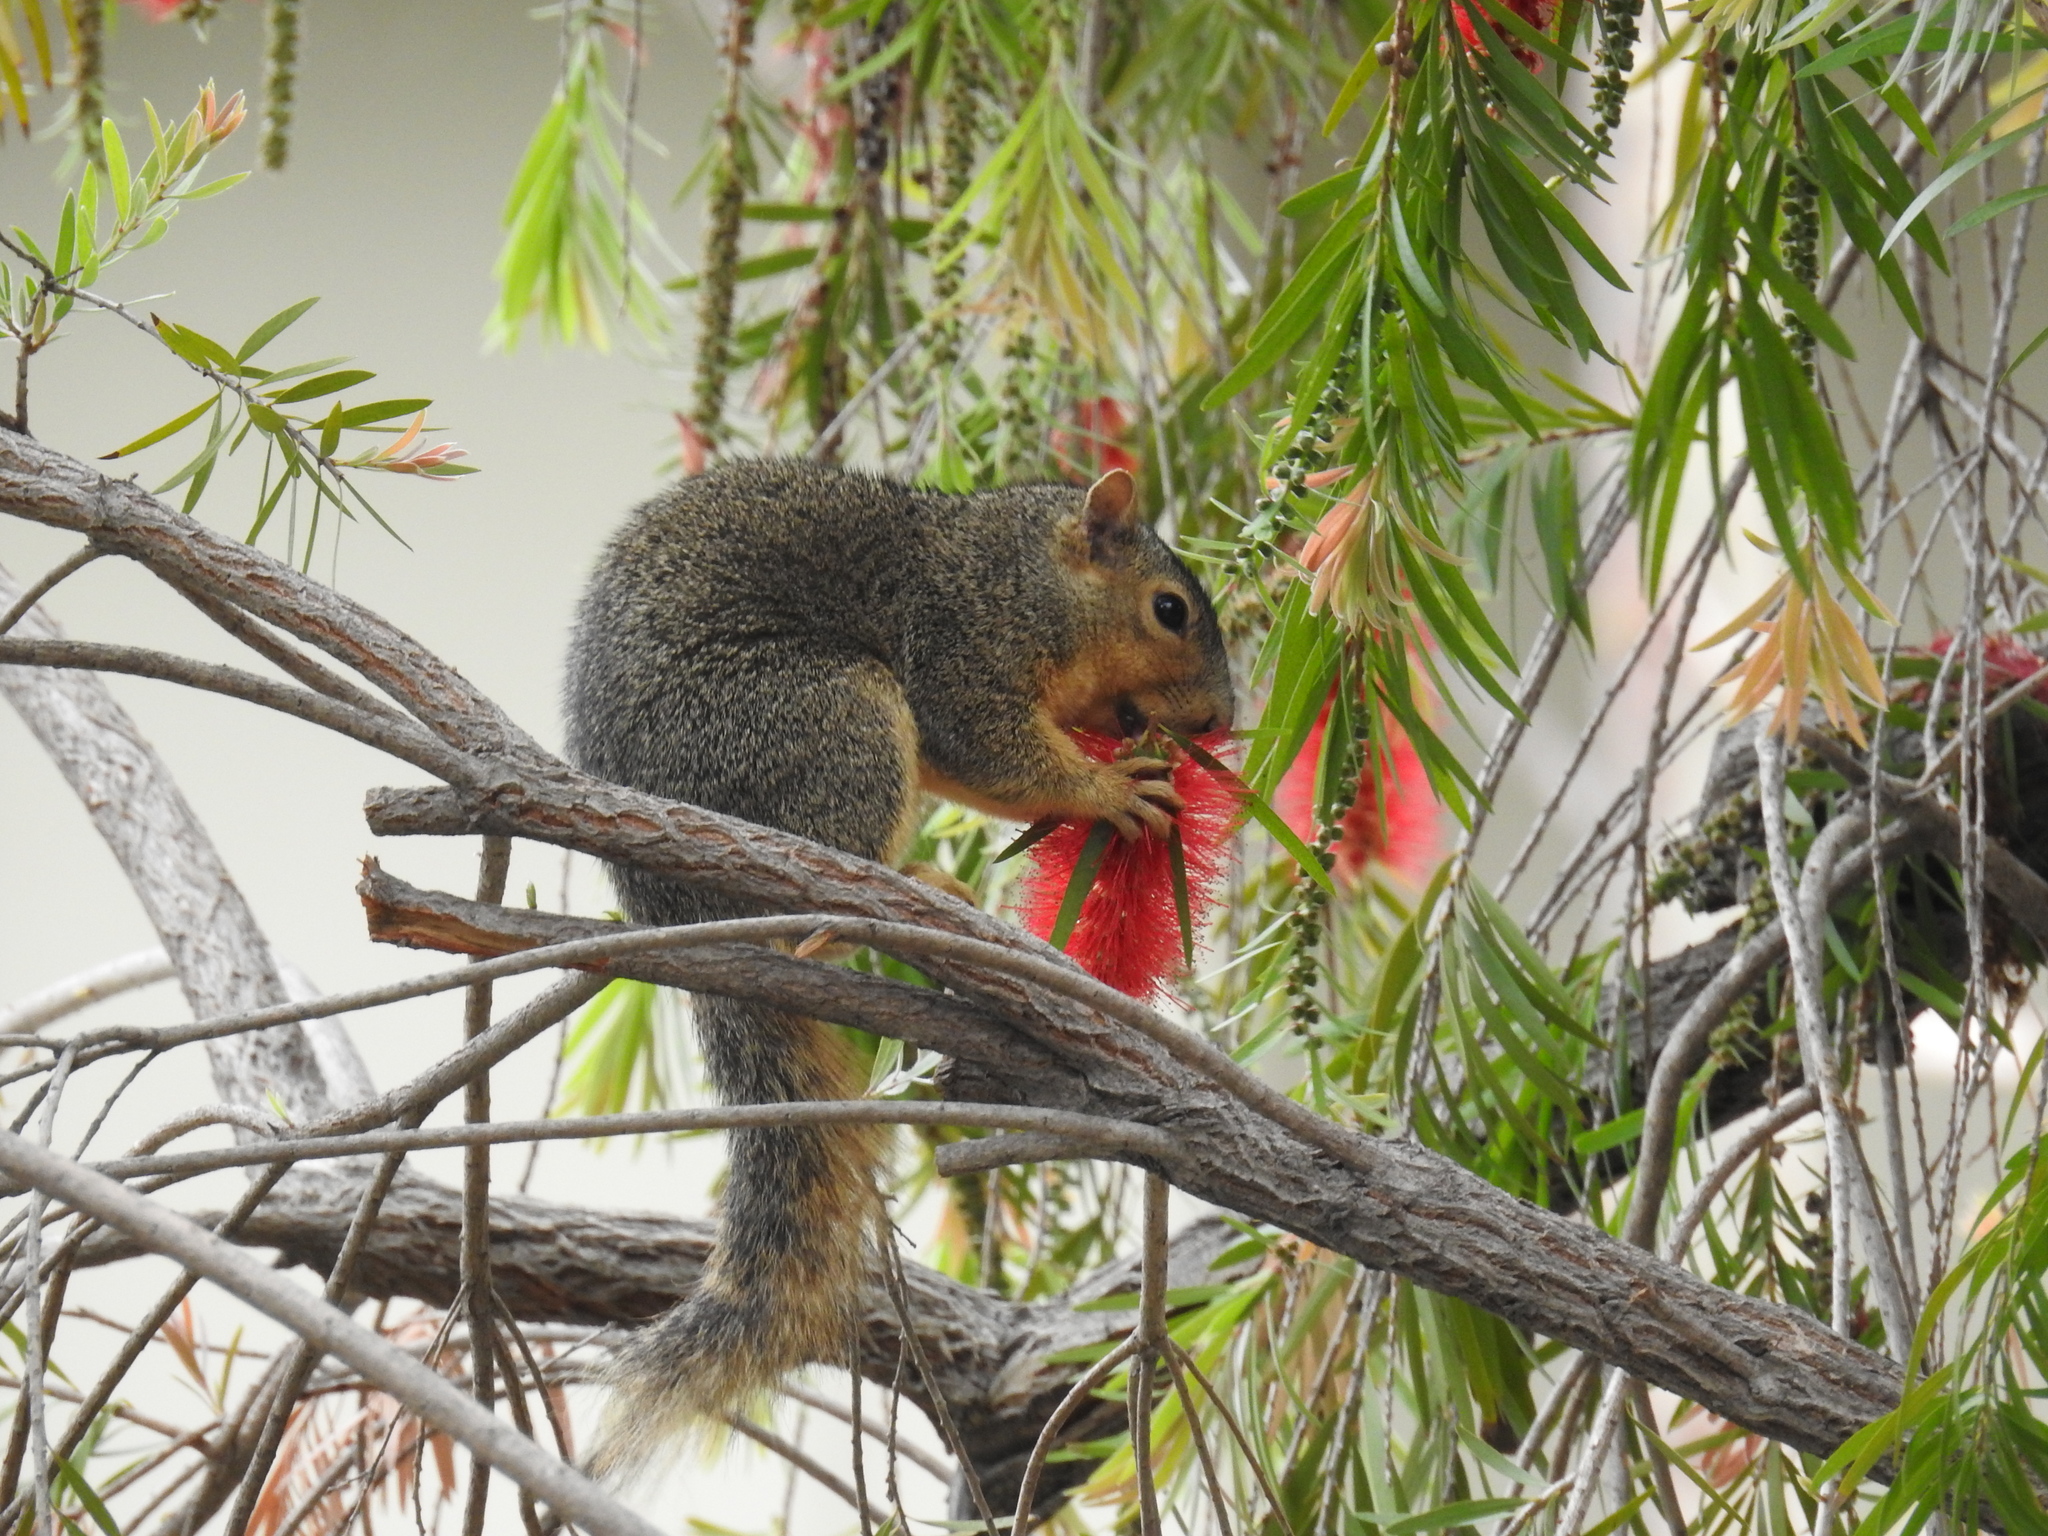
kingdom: Animalia
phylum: Chordata
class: Mammalia
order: Rodentia
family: Sciuridae
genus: Sciurus
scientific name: Sciurus niger
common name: Fox squirrel
